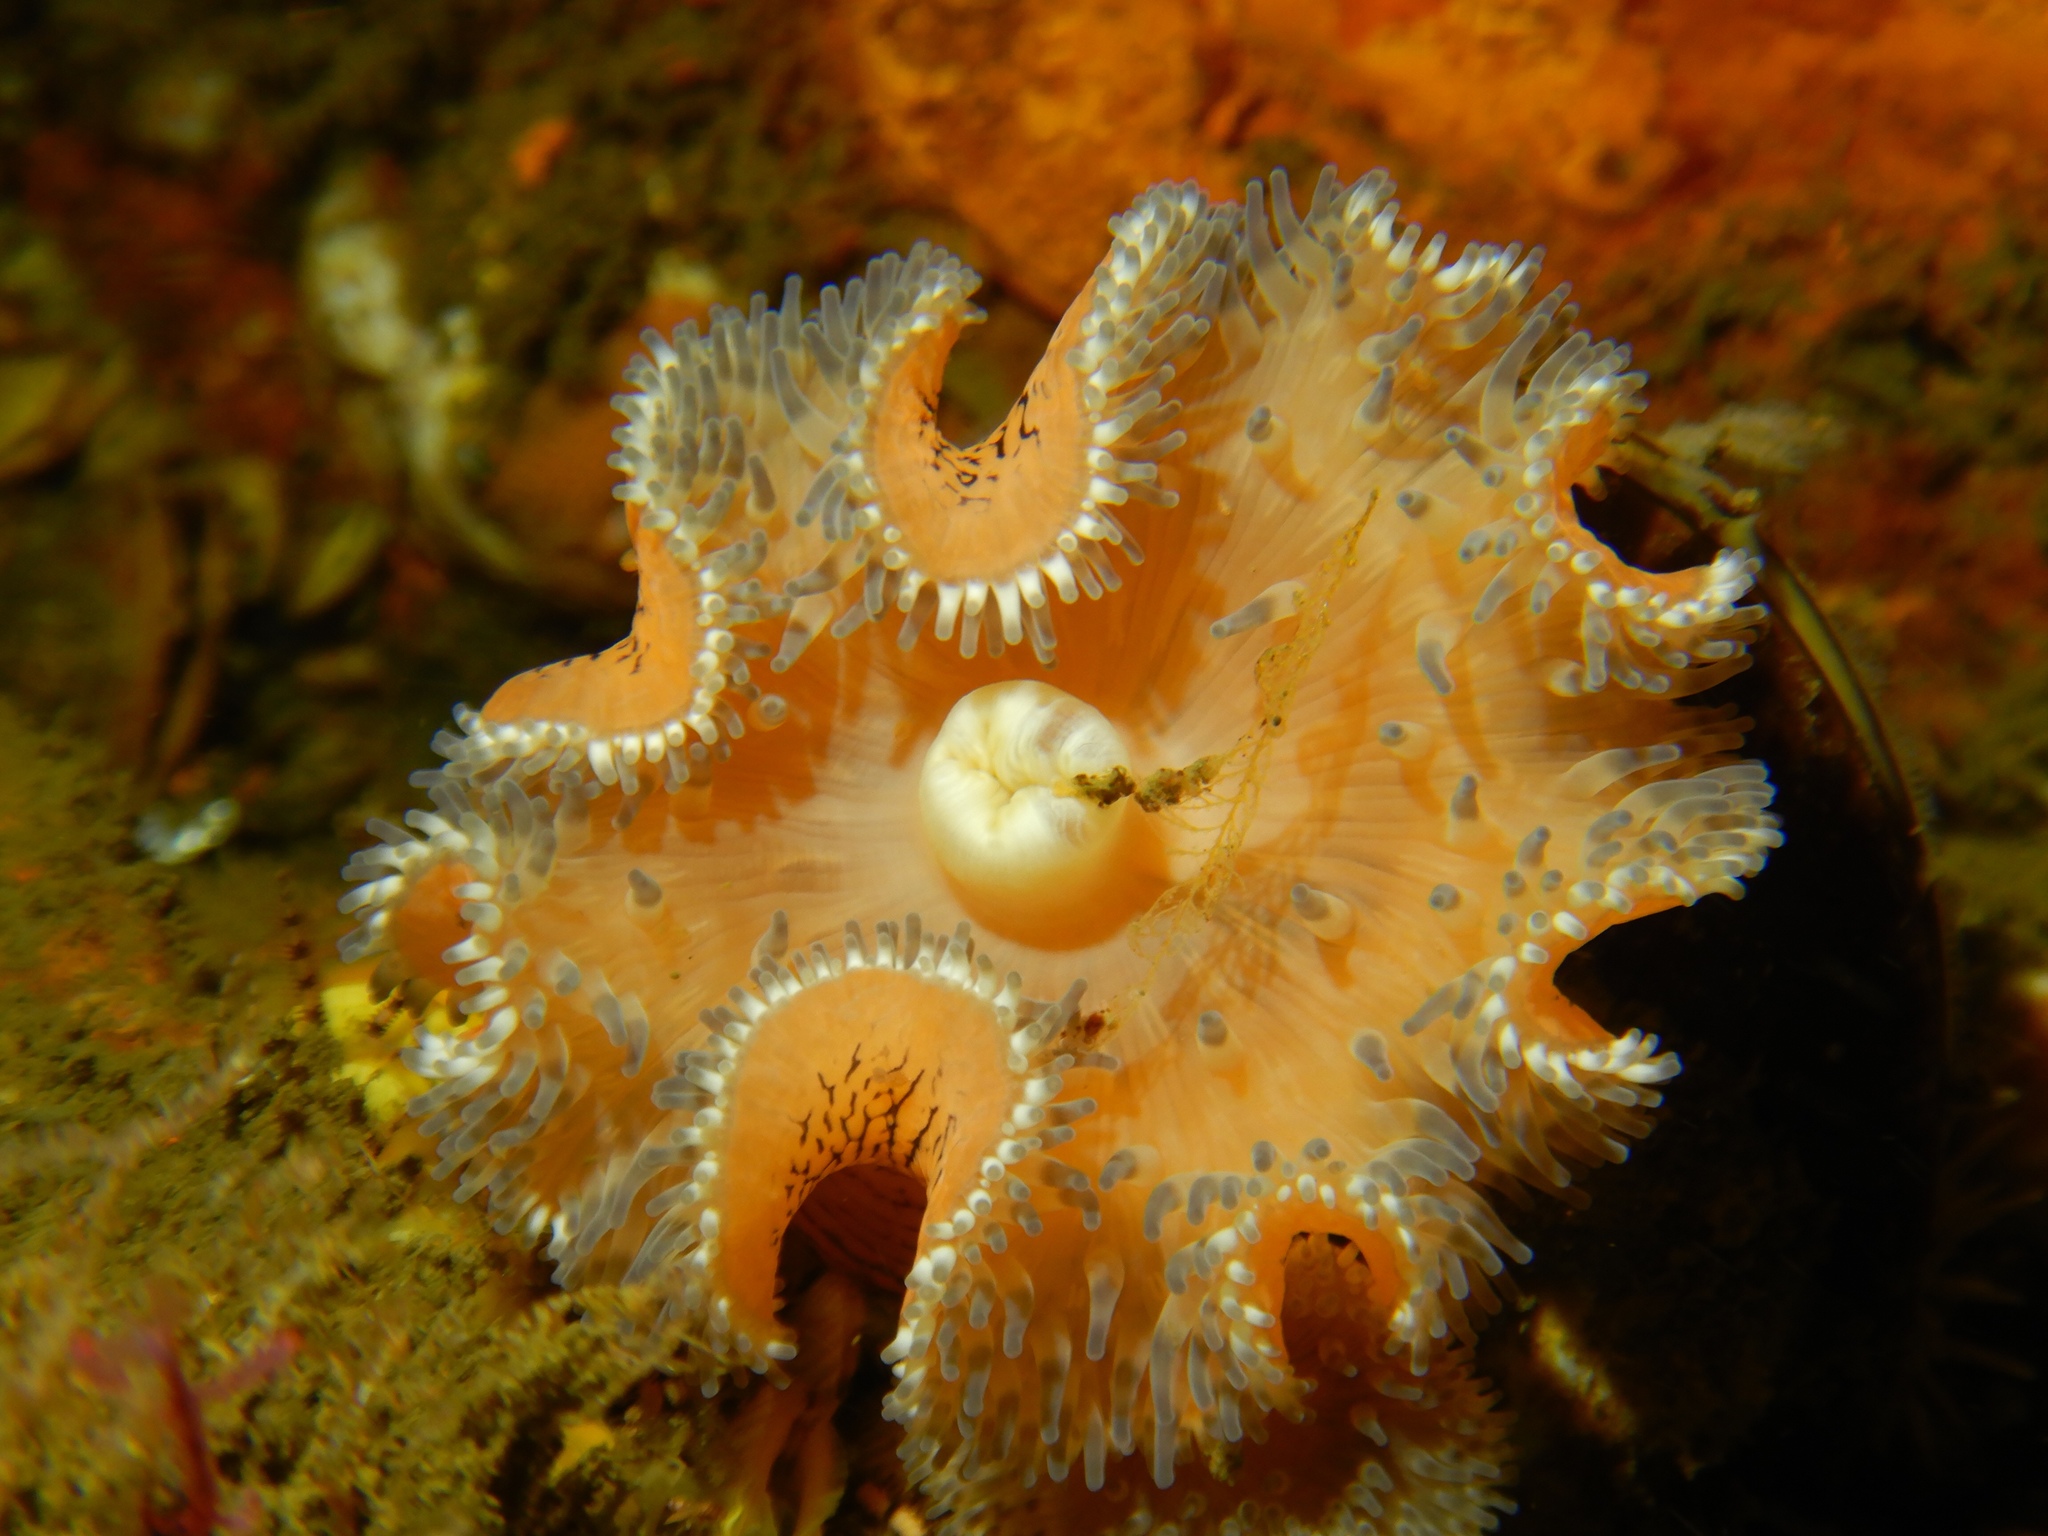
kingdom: Animalia
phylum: Cnidaria
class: Anthozoa
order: Actiniaria
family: Actinostolidae
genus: Antholoba
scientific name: Antholoba achates
